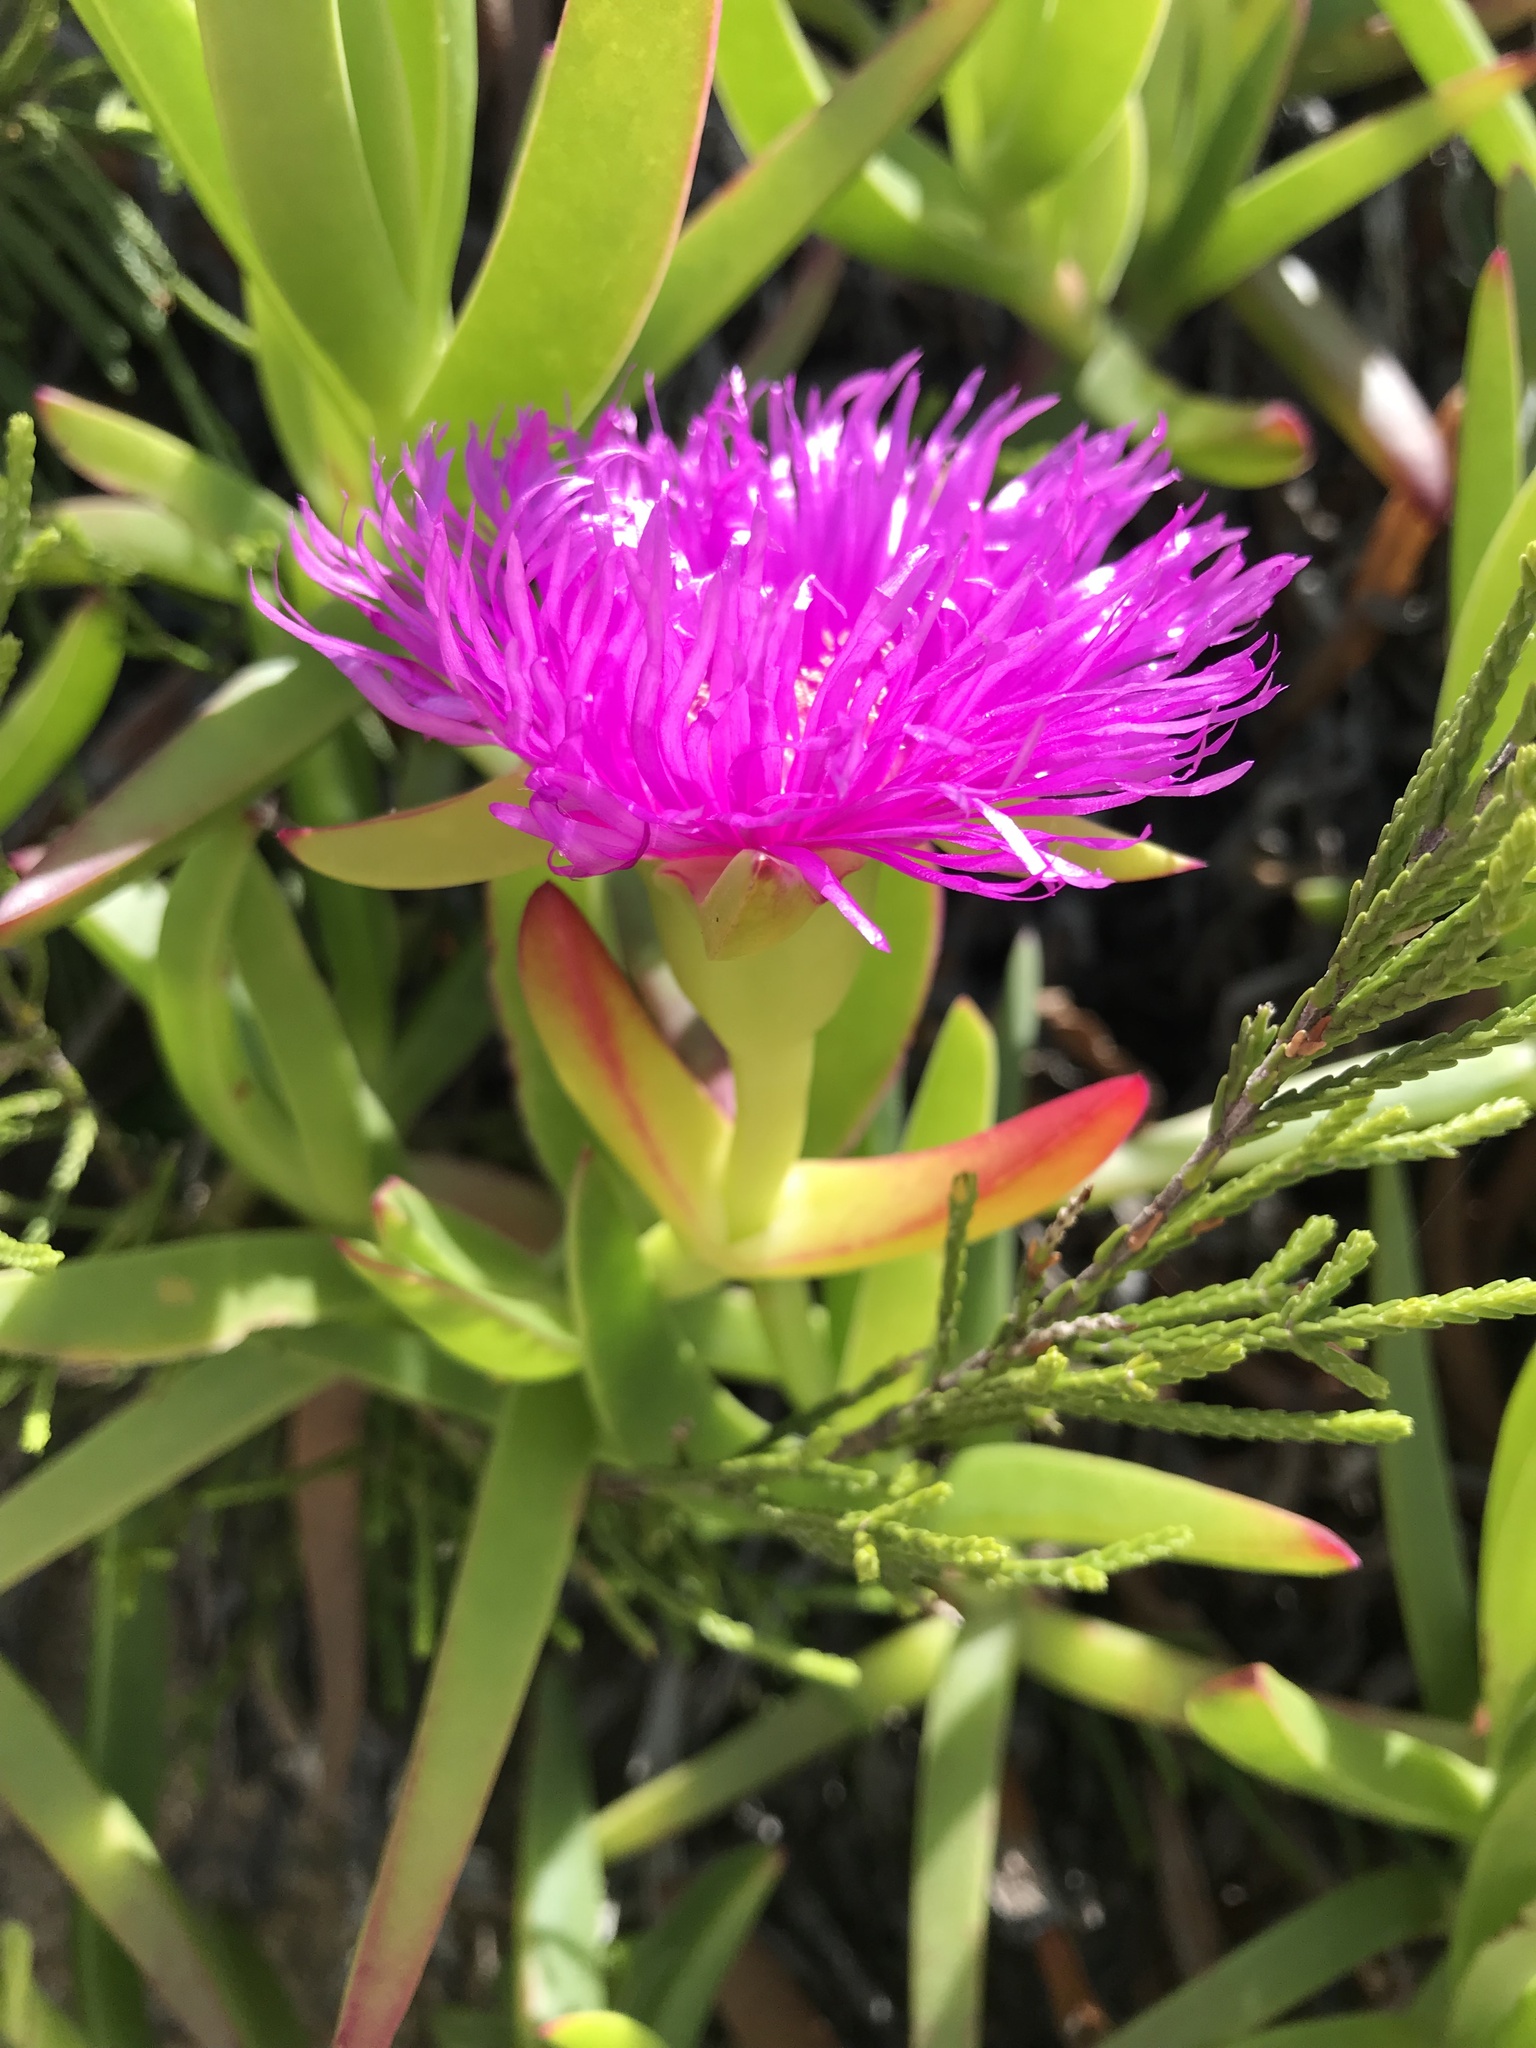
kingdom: Plantae
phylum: Tracheophyta
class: Magnoliopsida
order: Caryophyllales
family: Aizoaceae
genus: Carpobrotus
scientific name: Carpobrotus deliciosus
